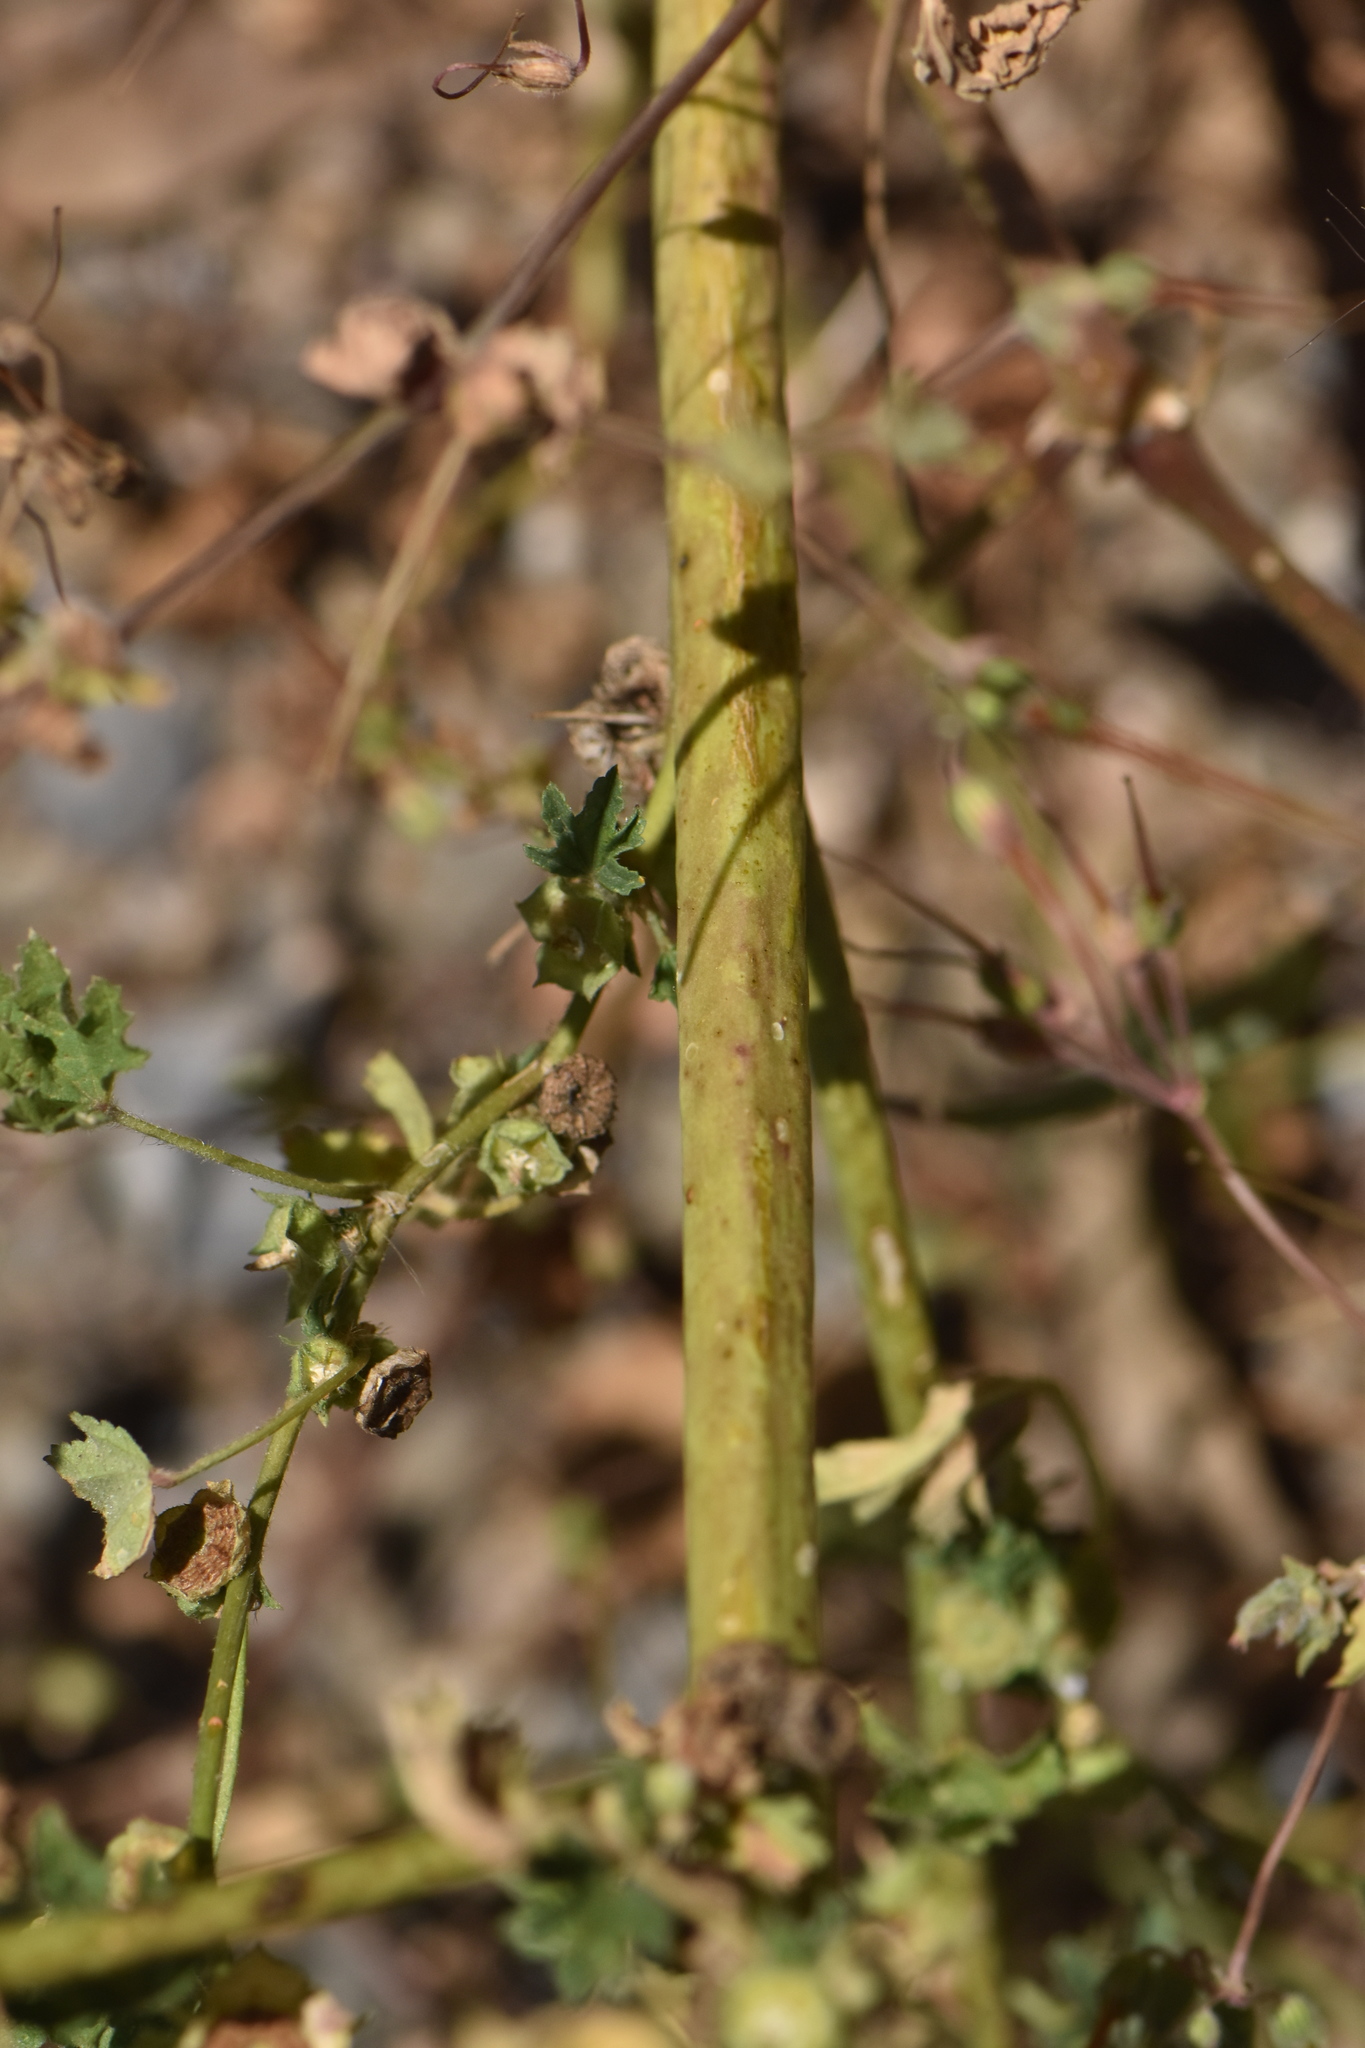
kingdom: Plantae
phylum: Tracheophyta
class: Magnoliopsida
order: Malvales
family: Malvaceae
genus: Malva
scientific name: Malva parviflora
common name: Least mallow
